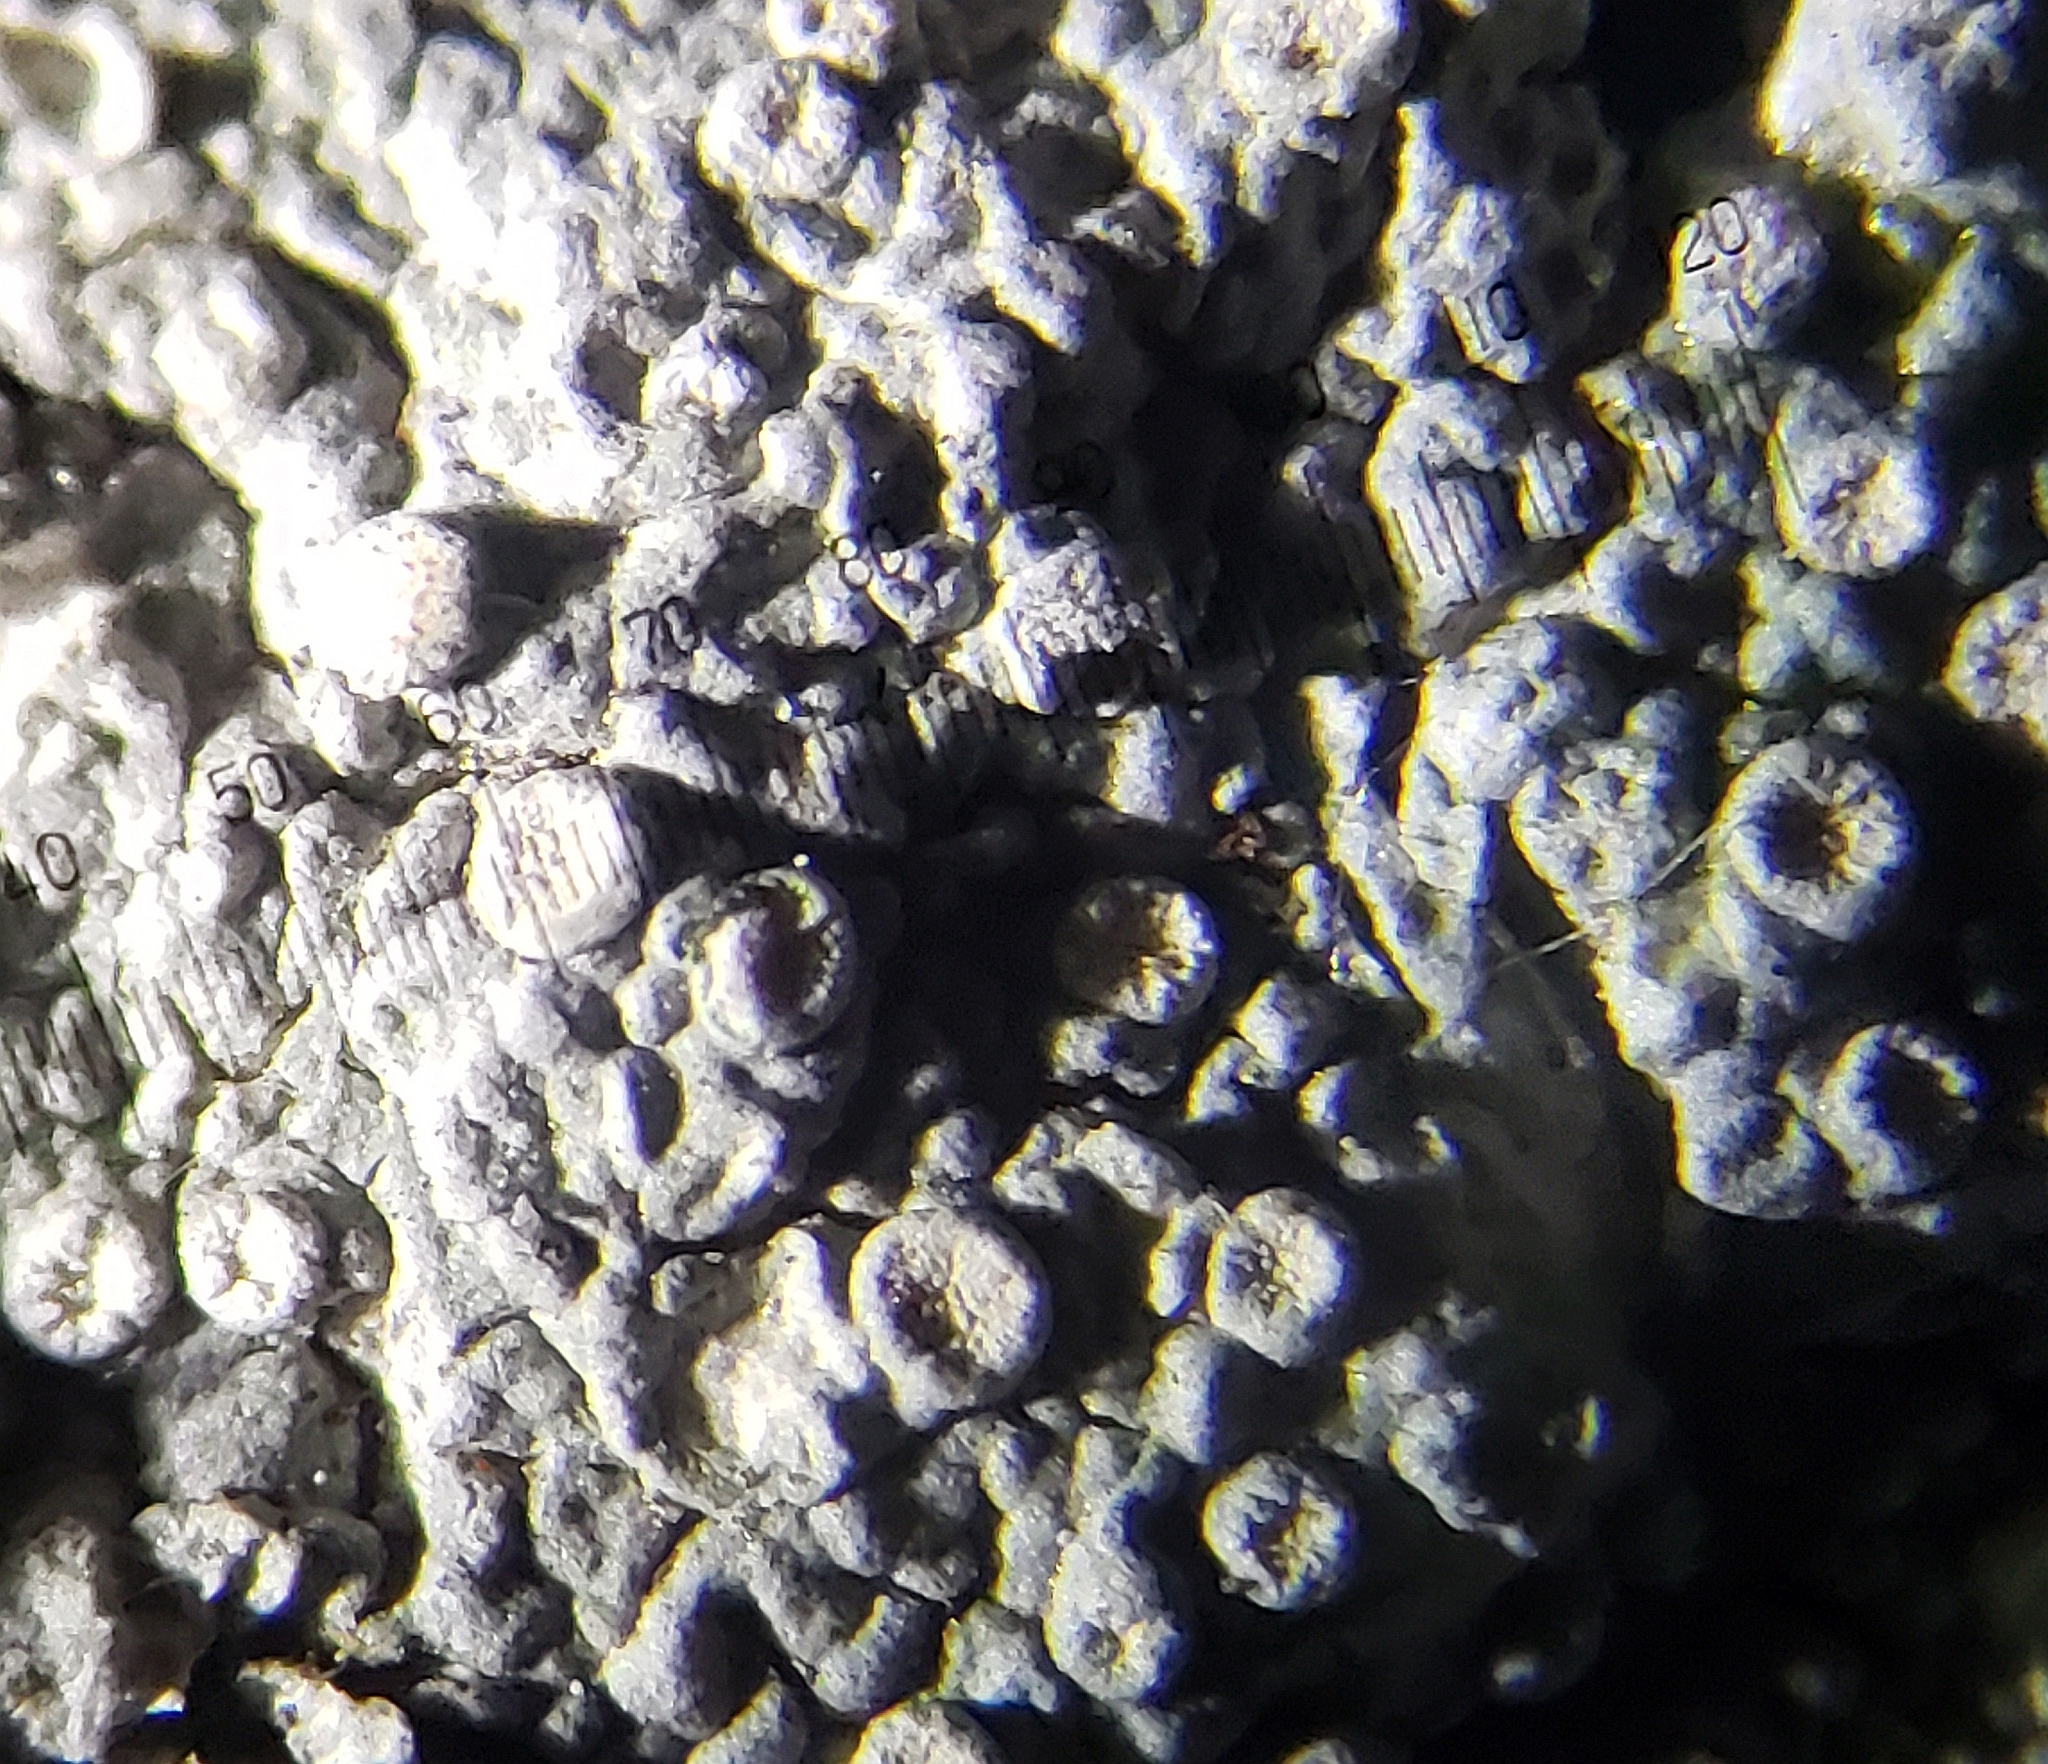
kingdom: Fungi
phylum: Ascomycota
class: Lecanoromycetes
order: Pertusariales
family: Varicellariaceae
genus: Varicellaria
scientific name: Varicellaria velata
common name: Rimmed wart lichen
